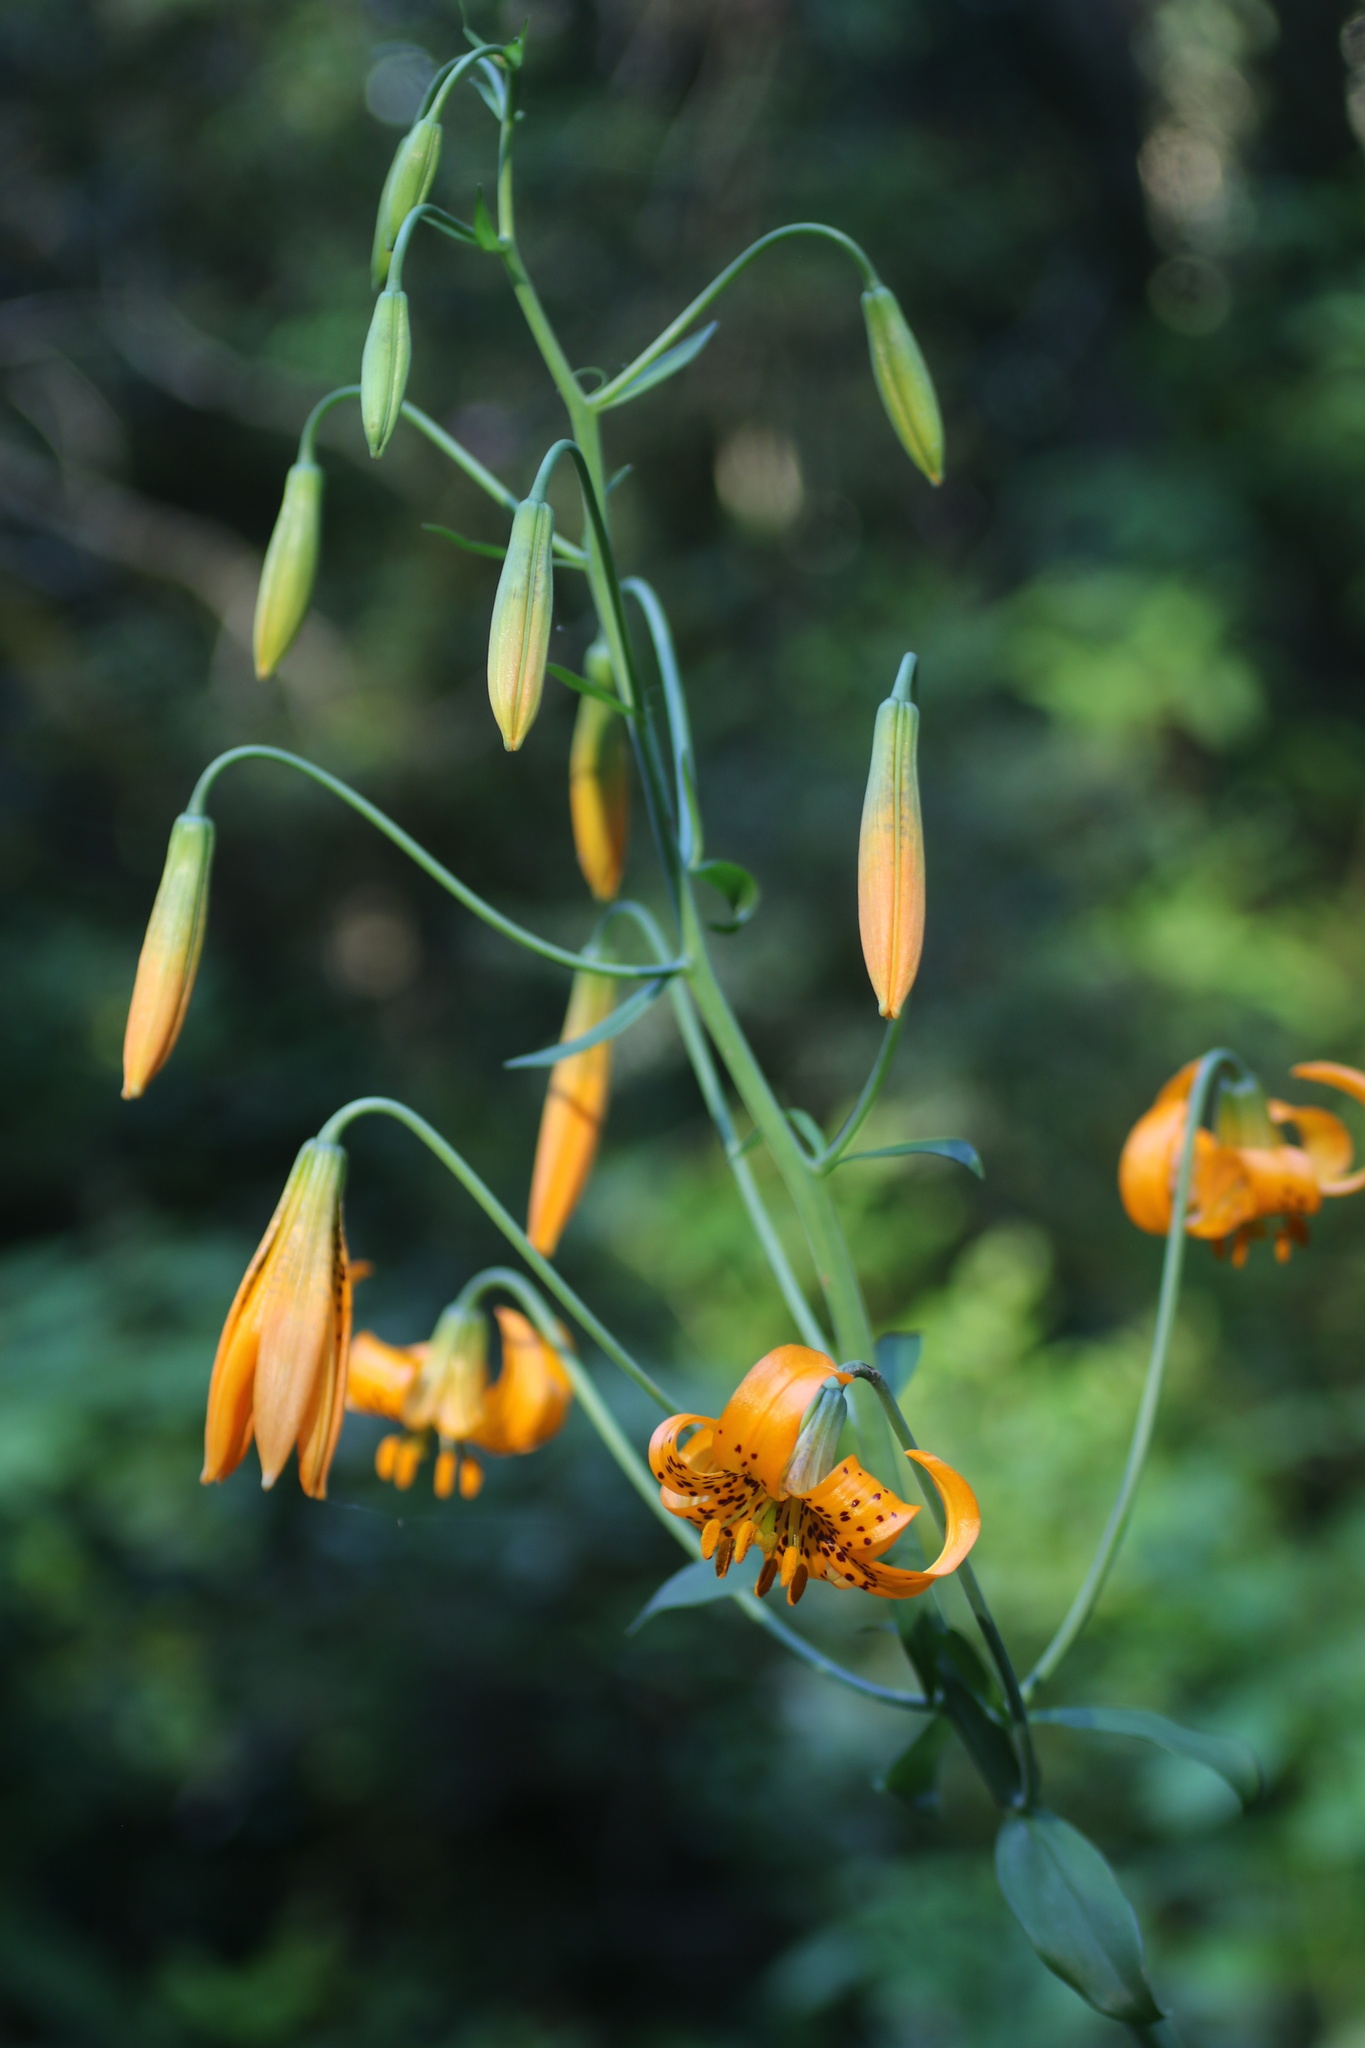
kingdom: Plantae
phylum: Tracheophyta
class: Liliopsida
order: Liliales
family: Liliaceae
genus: Lilium
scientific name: Lilium columbianum
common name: Columbia lily
